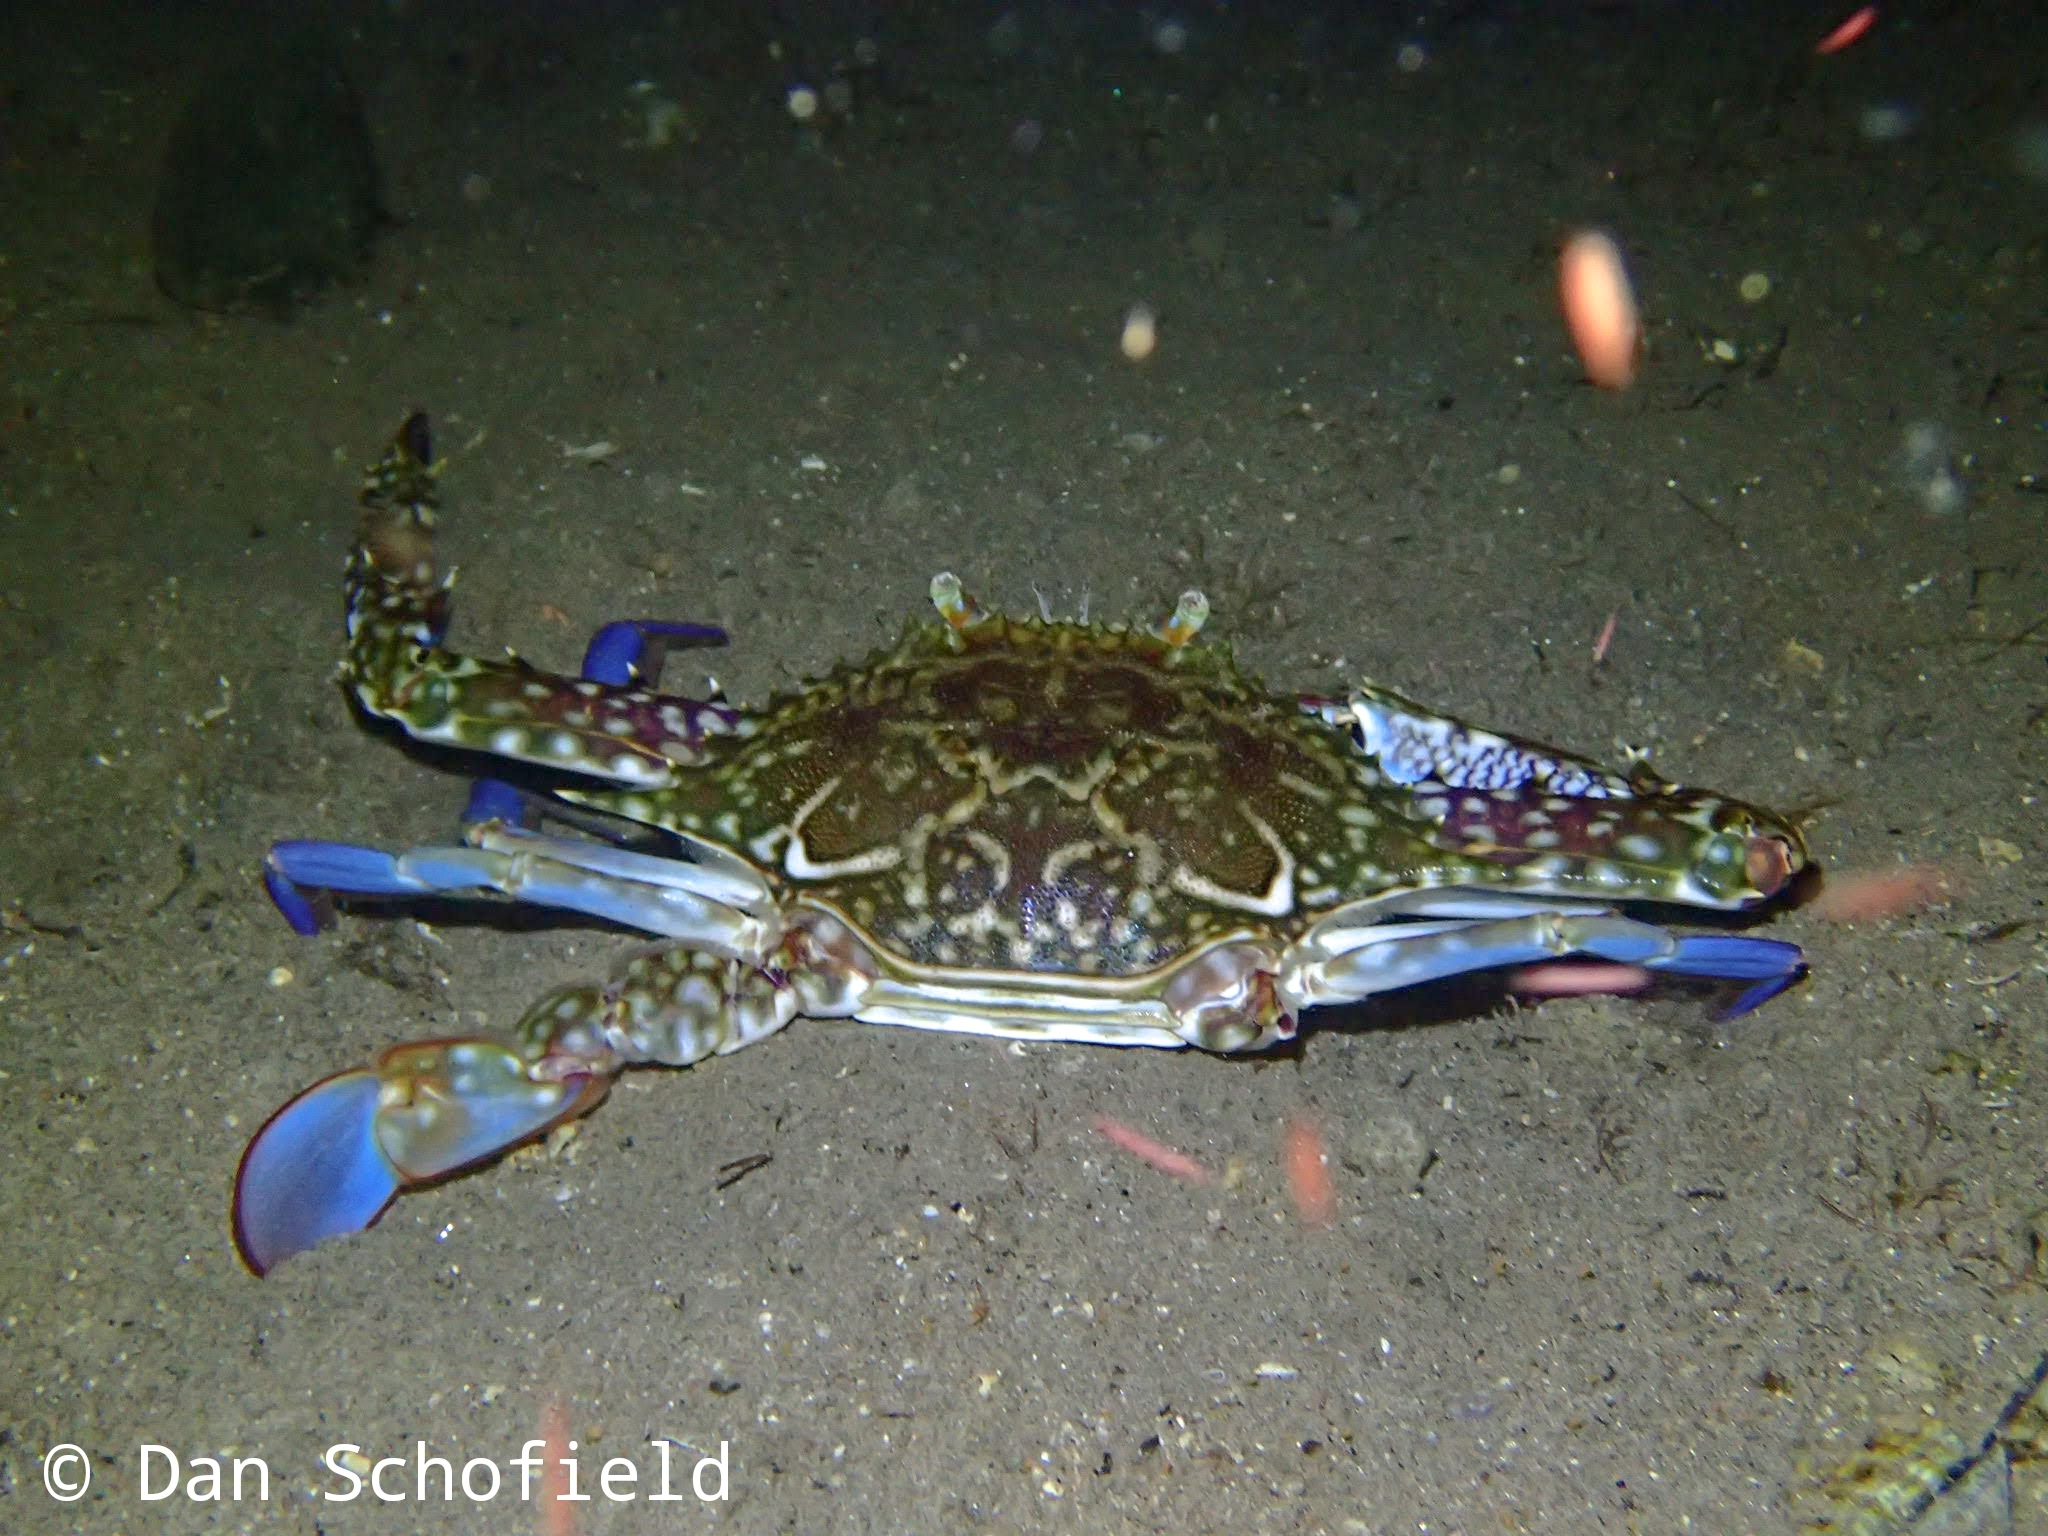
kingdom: Animalia
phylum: Arthropoda
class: Malacostraca
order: Decapoda
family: Portunidae
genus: Portunus
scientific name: Portunus pelagicus
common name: Blue swimming crab
